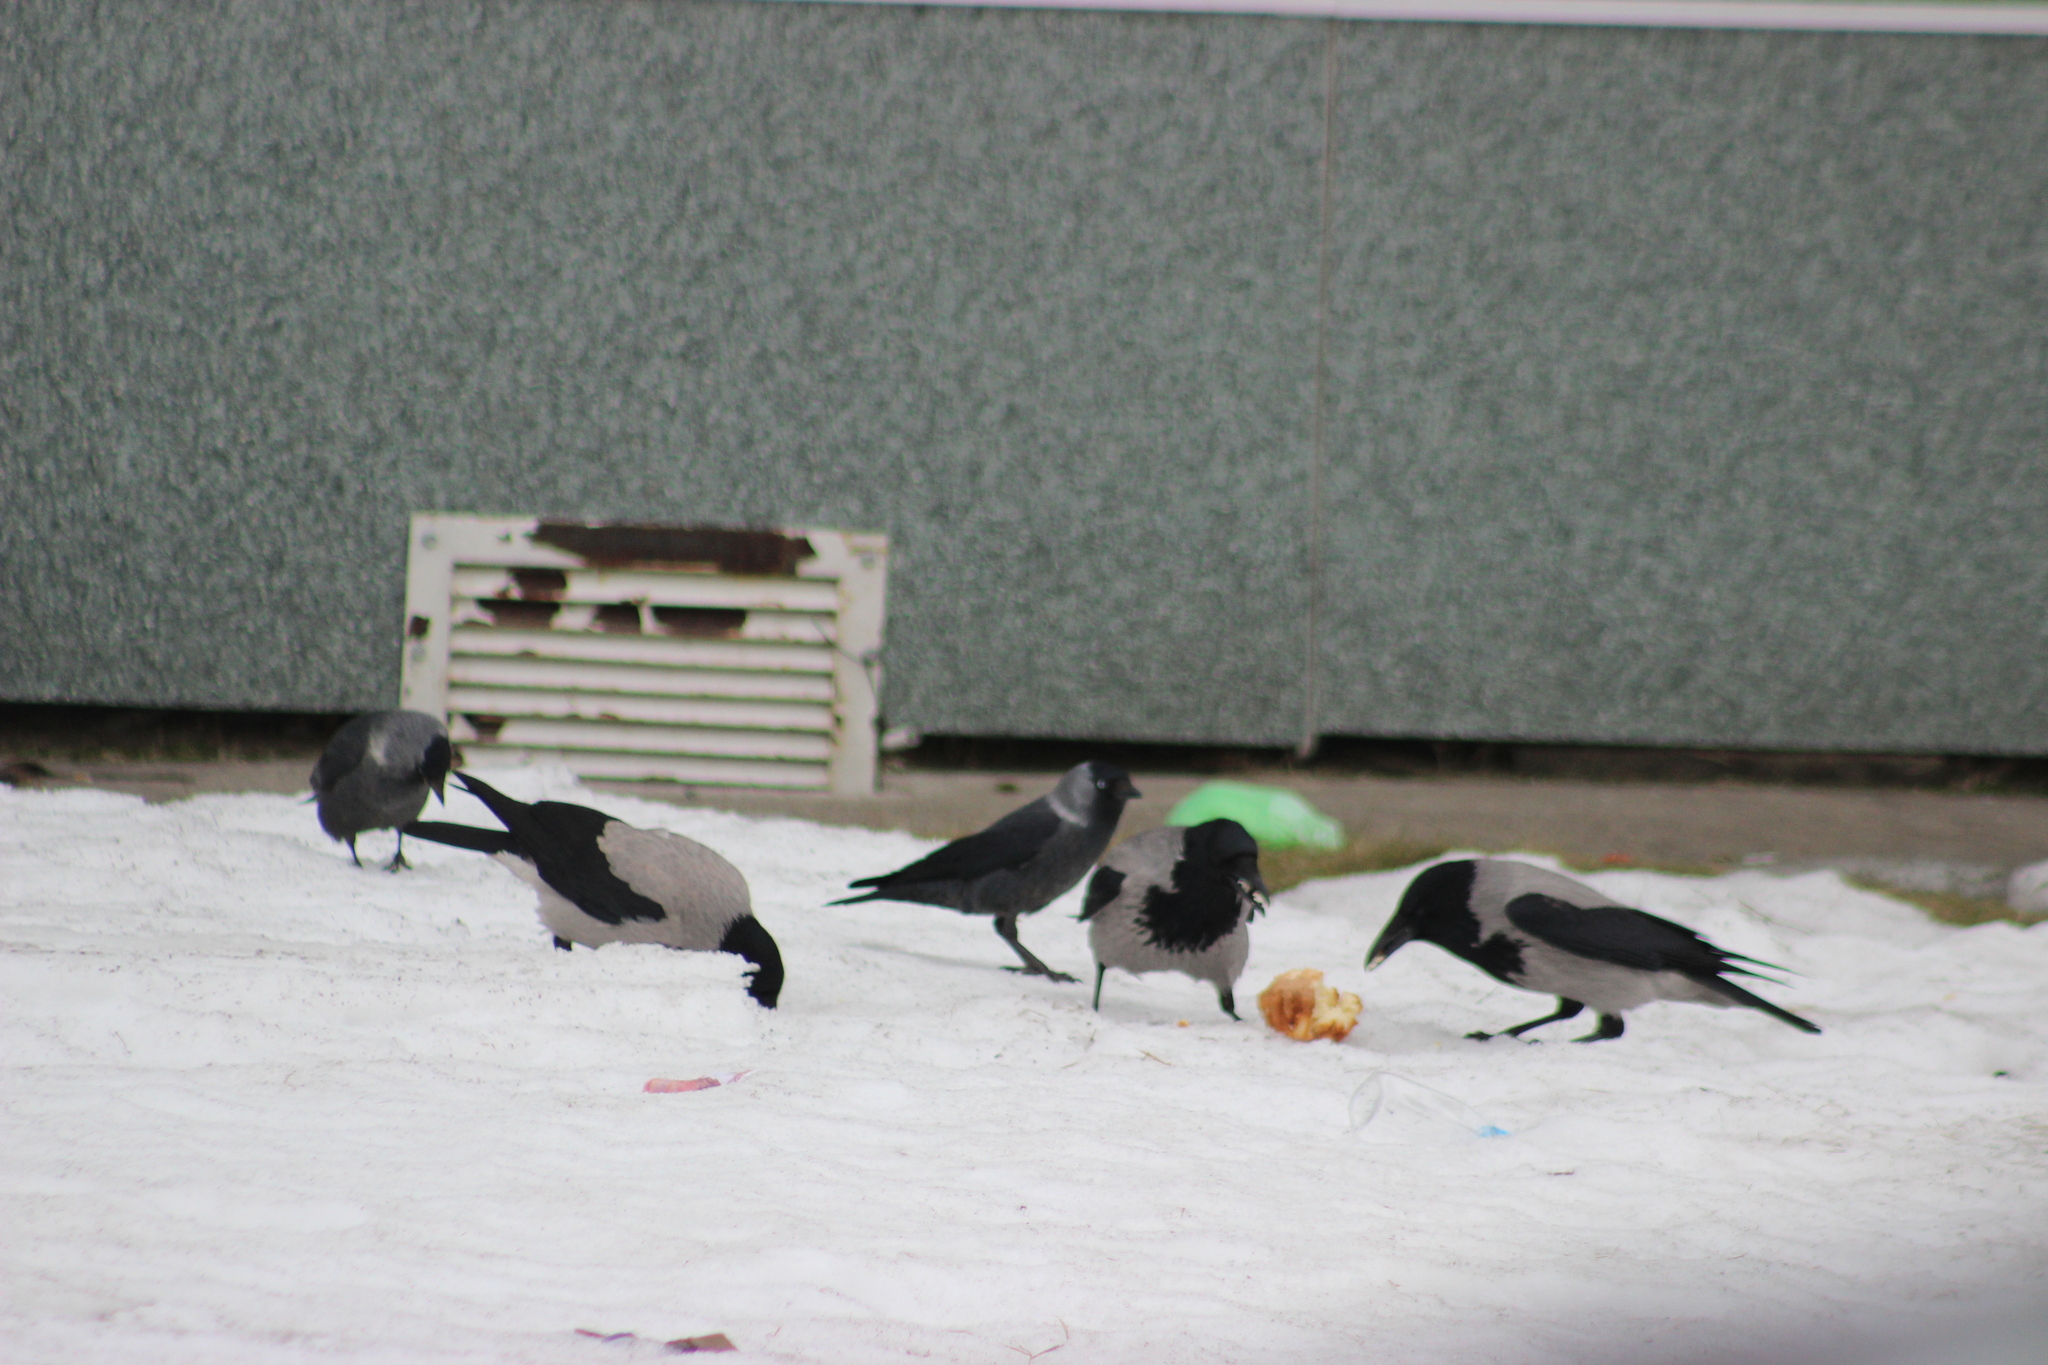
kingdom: Animalia
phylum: Chordata
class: Aves
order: Passeriformes
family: Corvidae
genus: Corvus
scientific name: Corvus cornix
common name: Hooded crow
